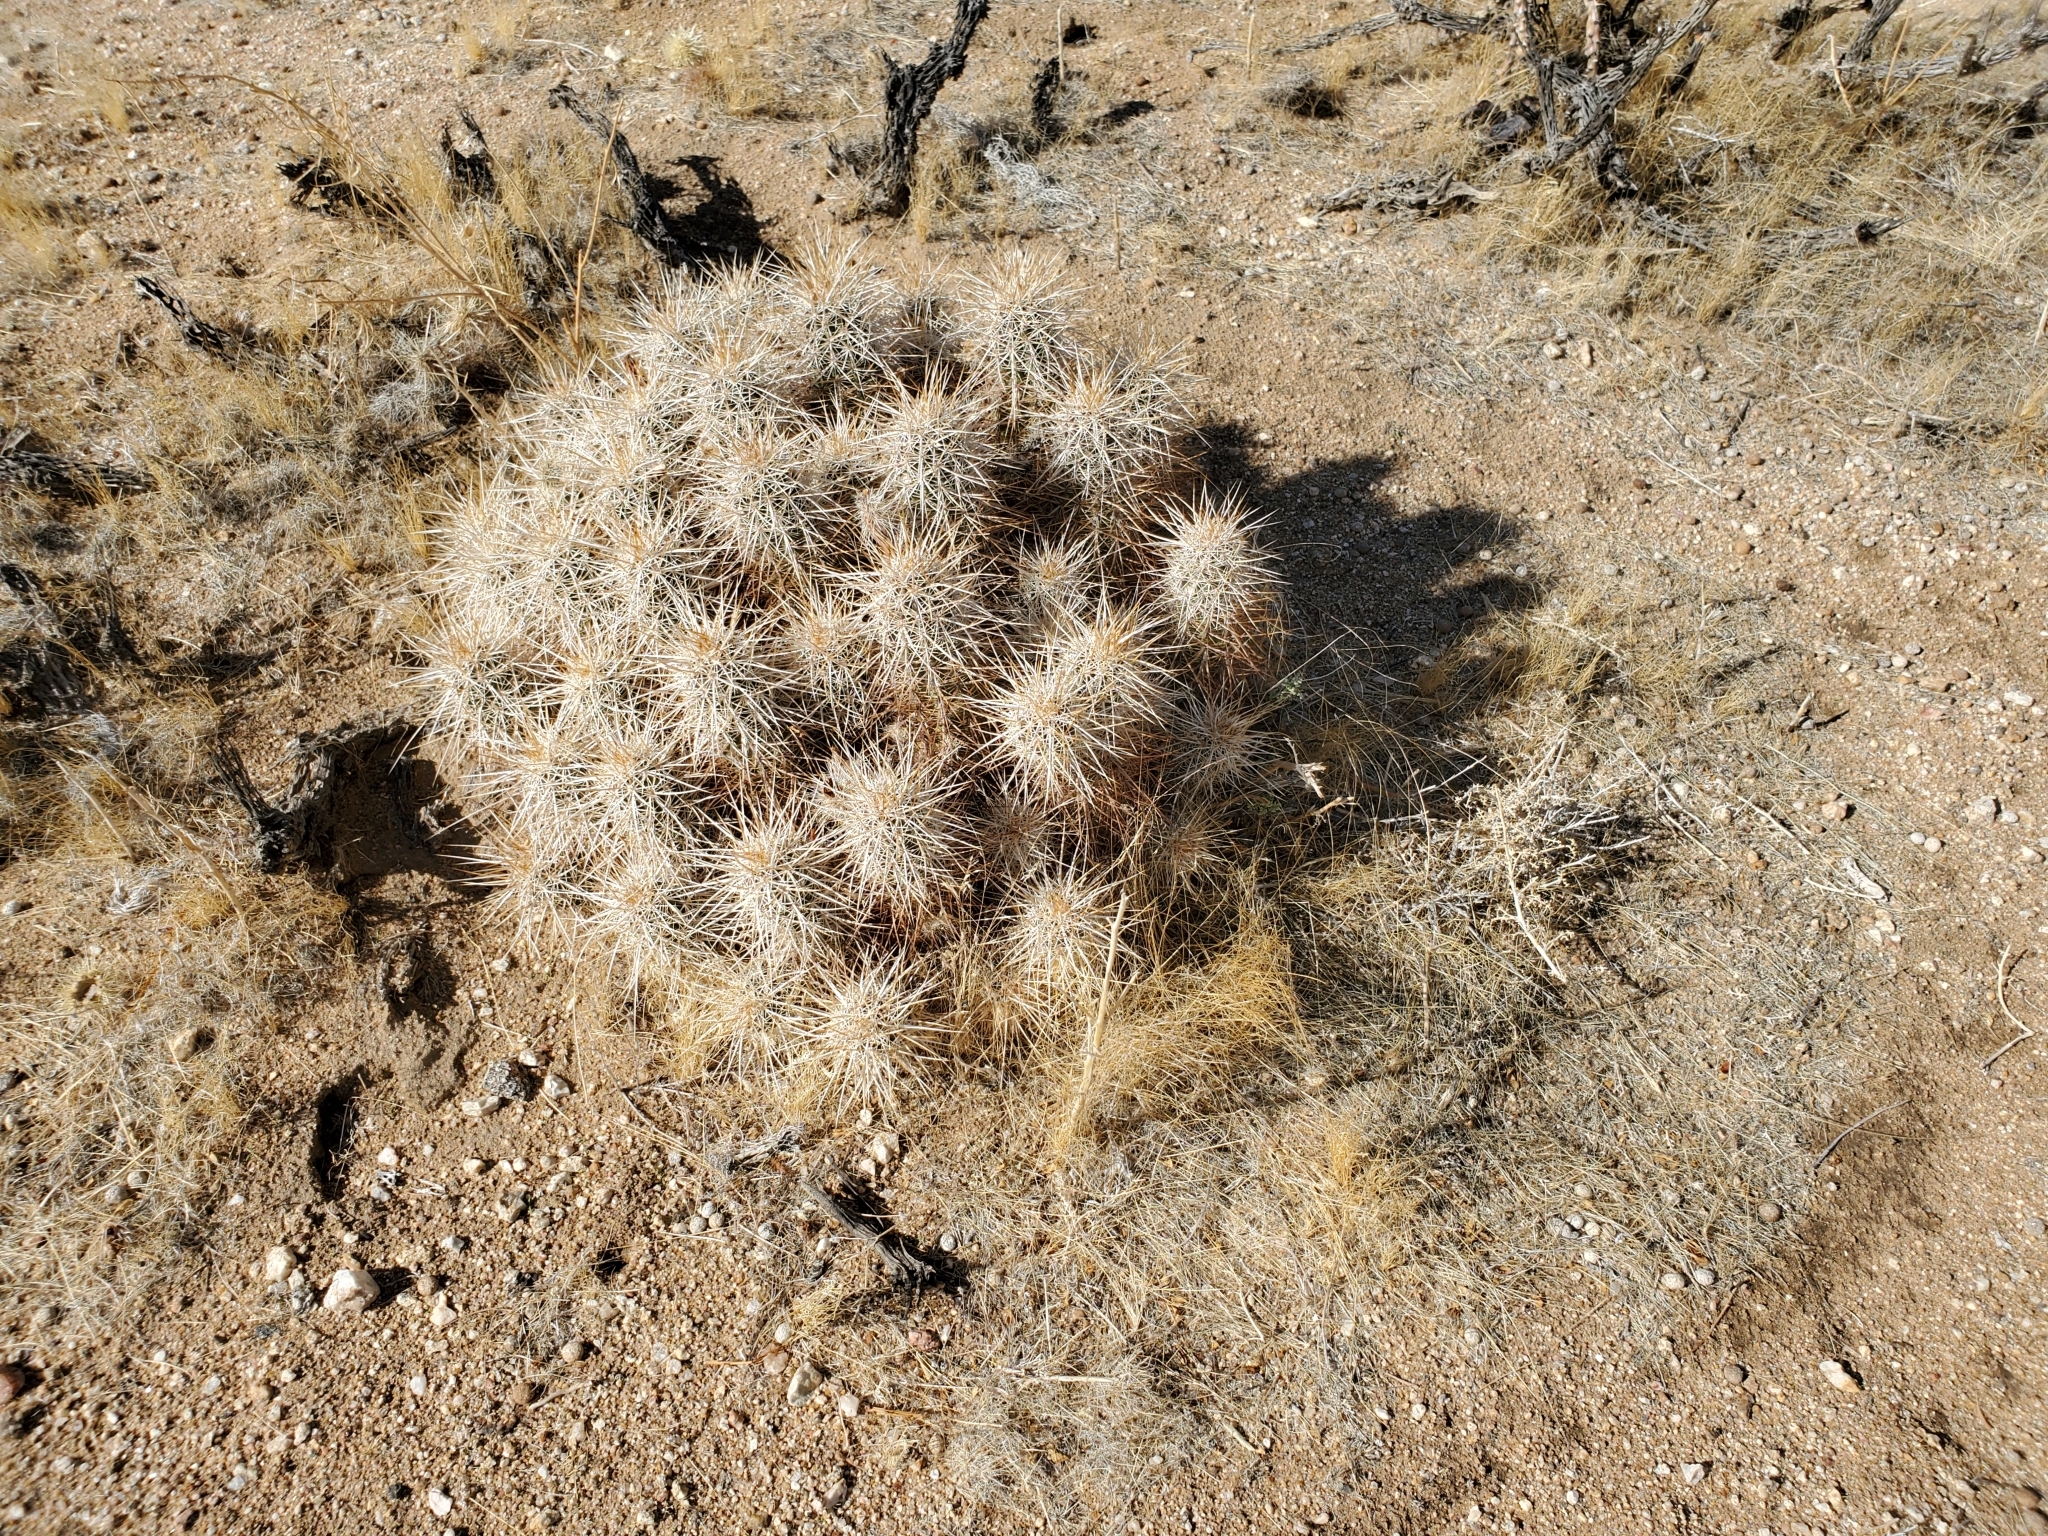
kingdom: Plantae
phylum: Tracheophyta
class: Magnoliopsida
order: Caryophyllales
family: Cactaceae
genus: Echinocereus
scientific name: Echinocereus engelmannii
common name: Engelmann's hedgehog cactus
